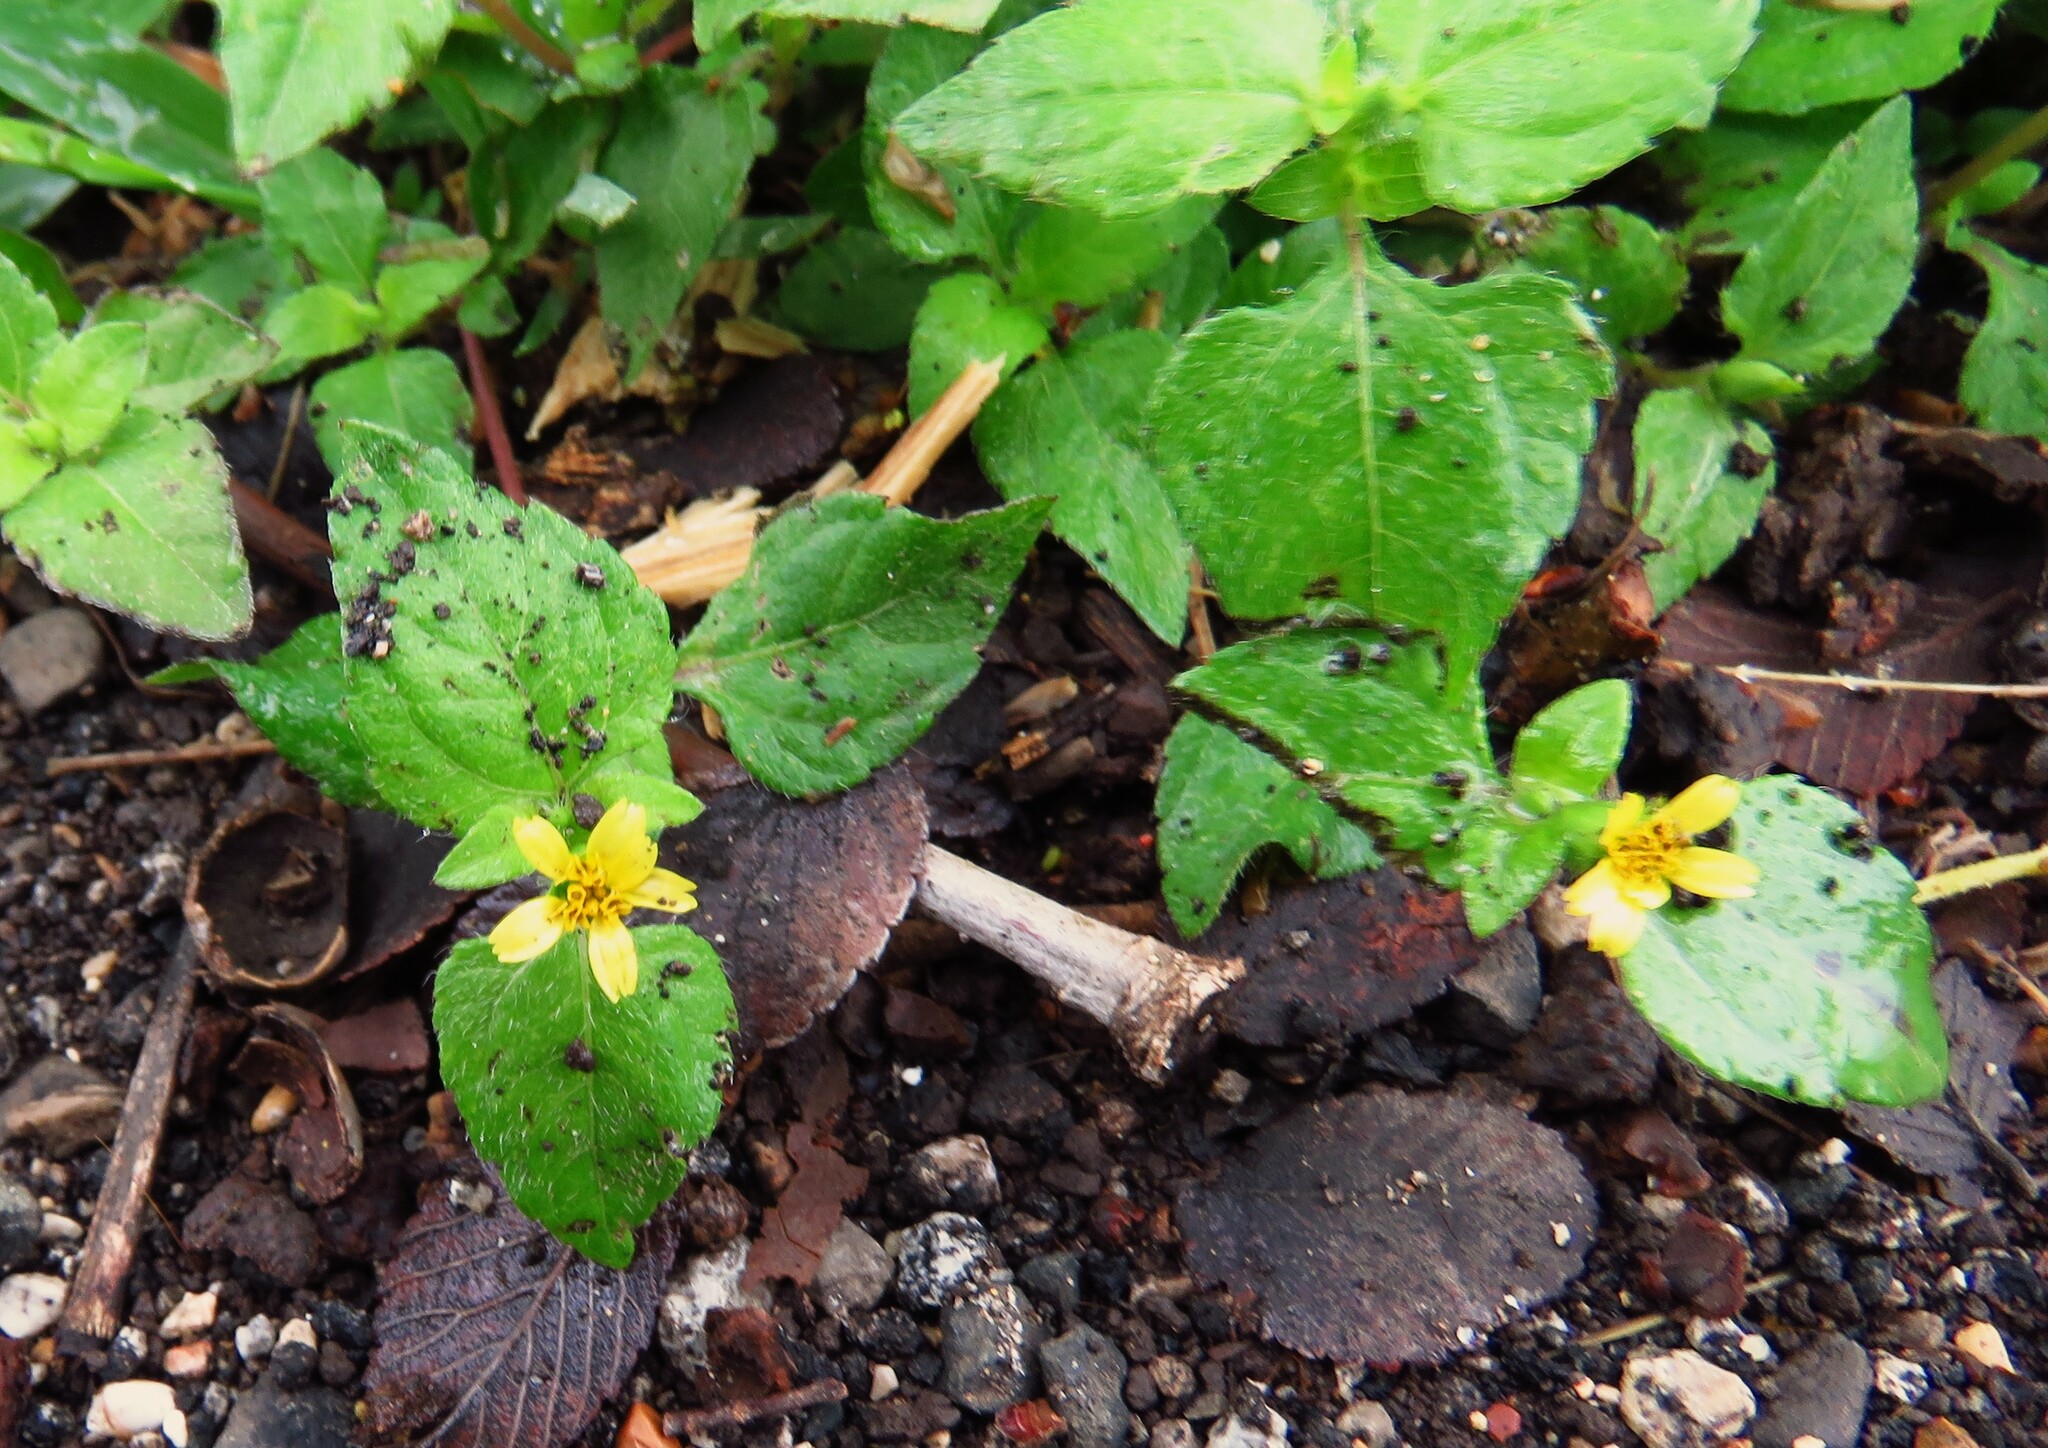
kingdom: Plantae
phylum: Tracheophyta
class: Magnoliopsida
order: Asterales
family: Asteraceae
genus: Calyptocarpus
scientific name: Calyptocarpus vialis
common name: Straggler daisy
